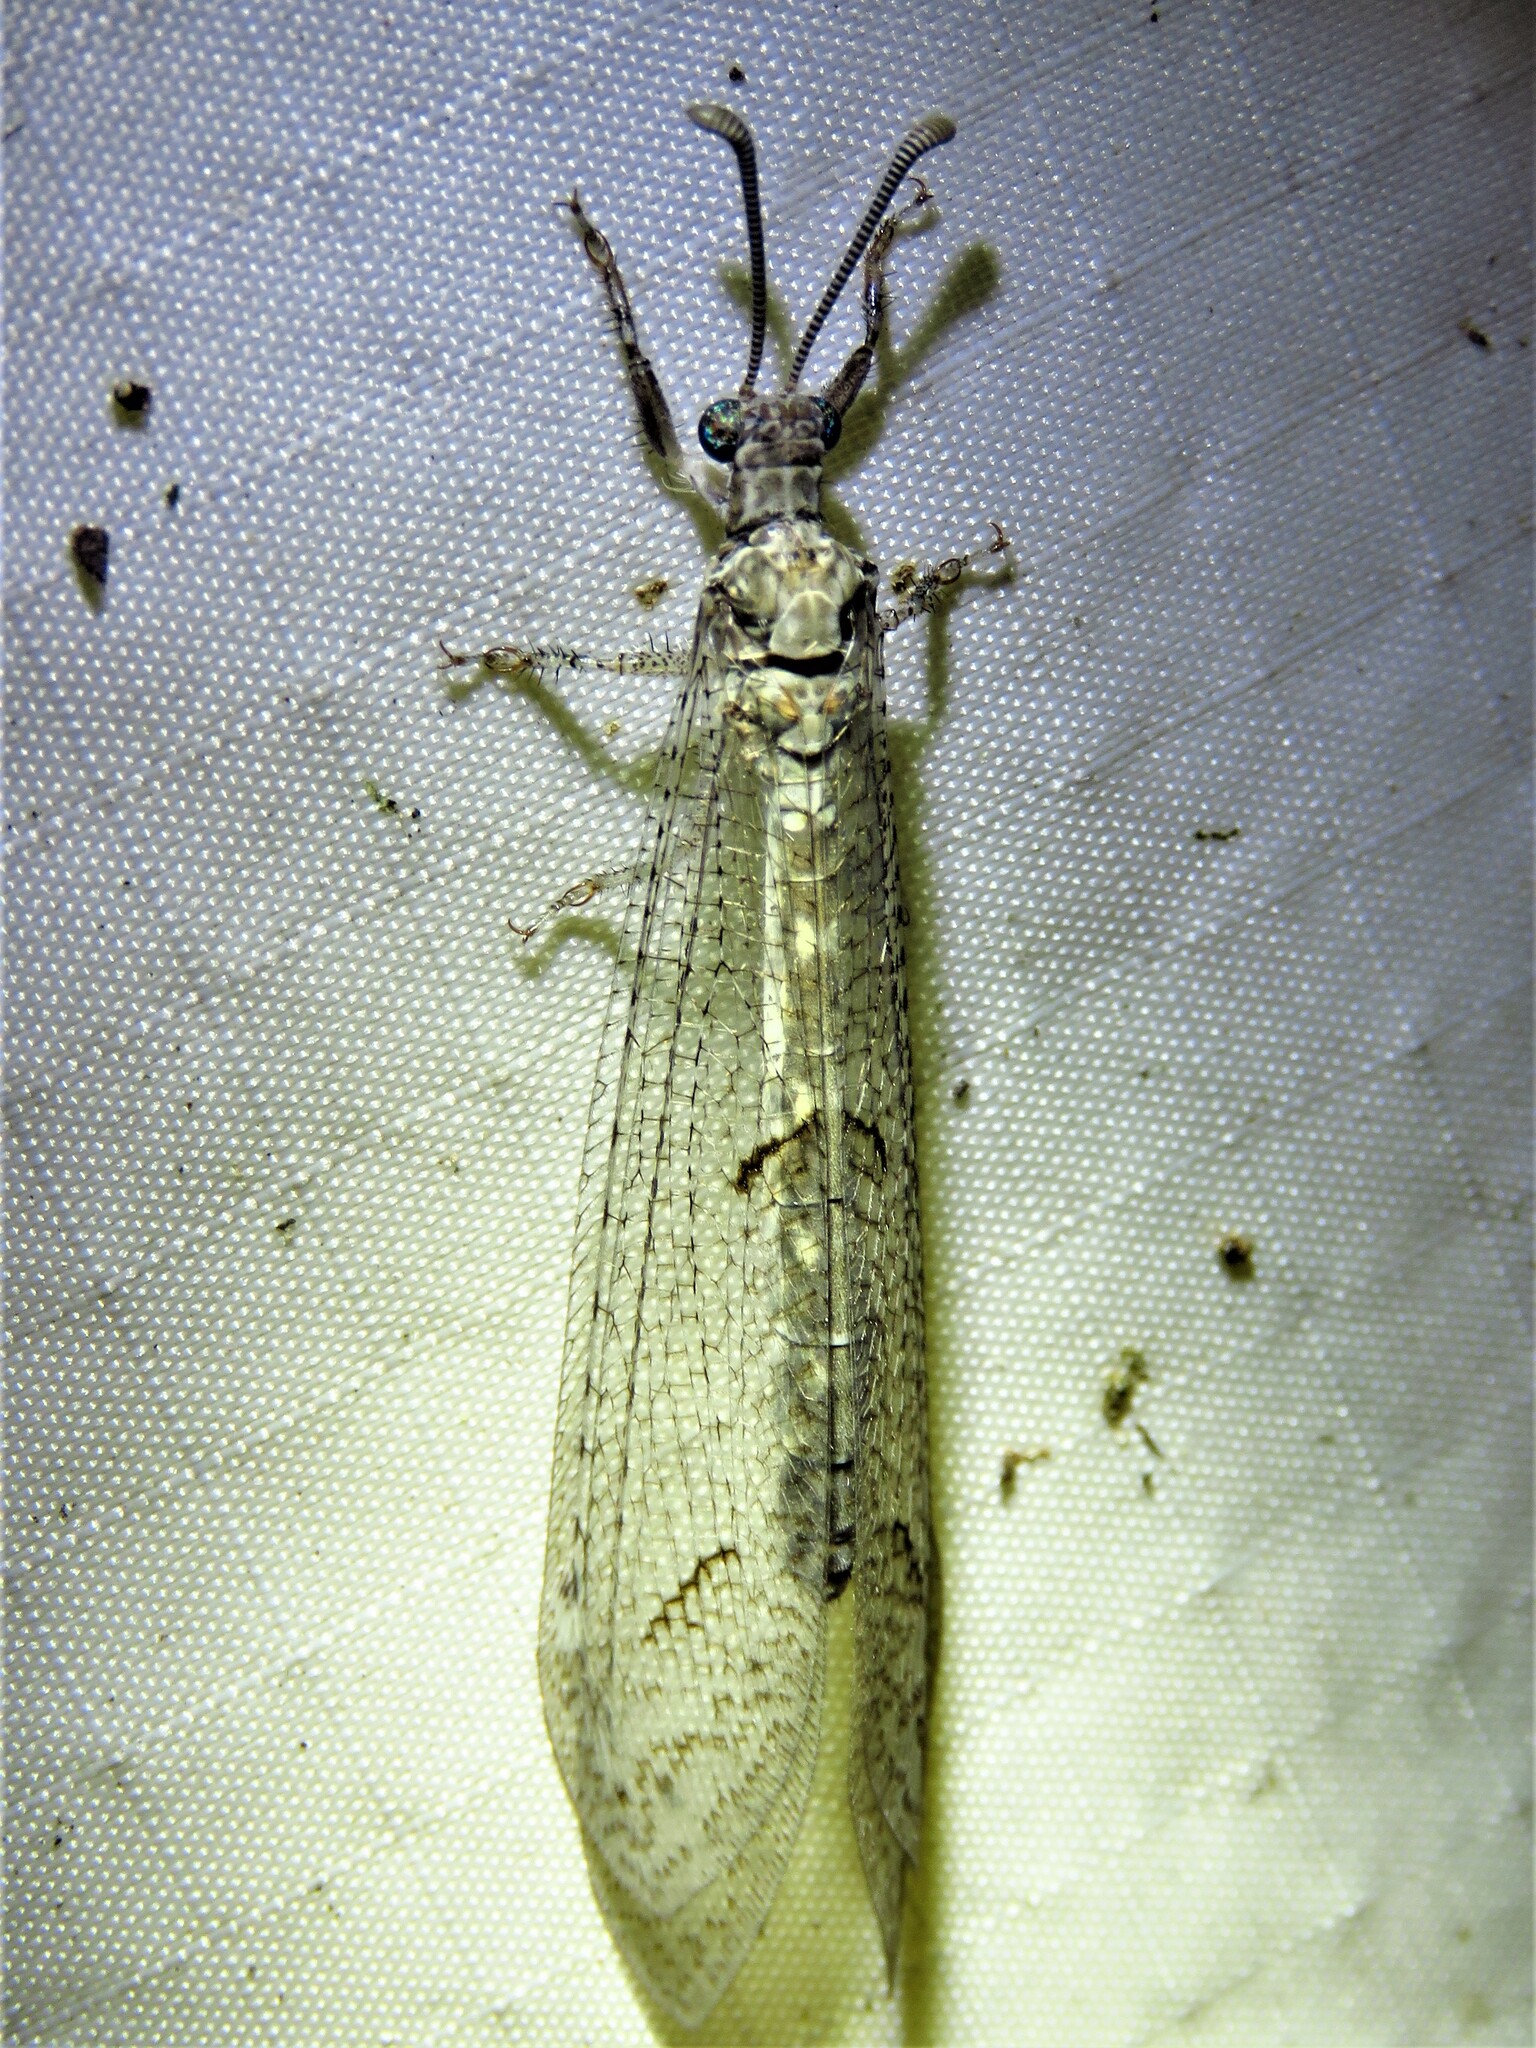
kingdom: Animalia
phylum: Arthropoda
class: Insecta
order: Neuroptera
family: Myrmeleontidae
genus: Euptilon
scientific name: Euptilon ornatum
